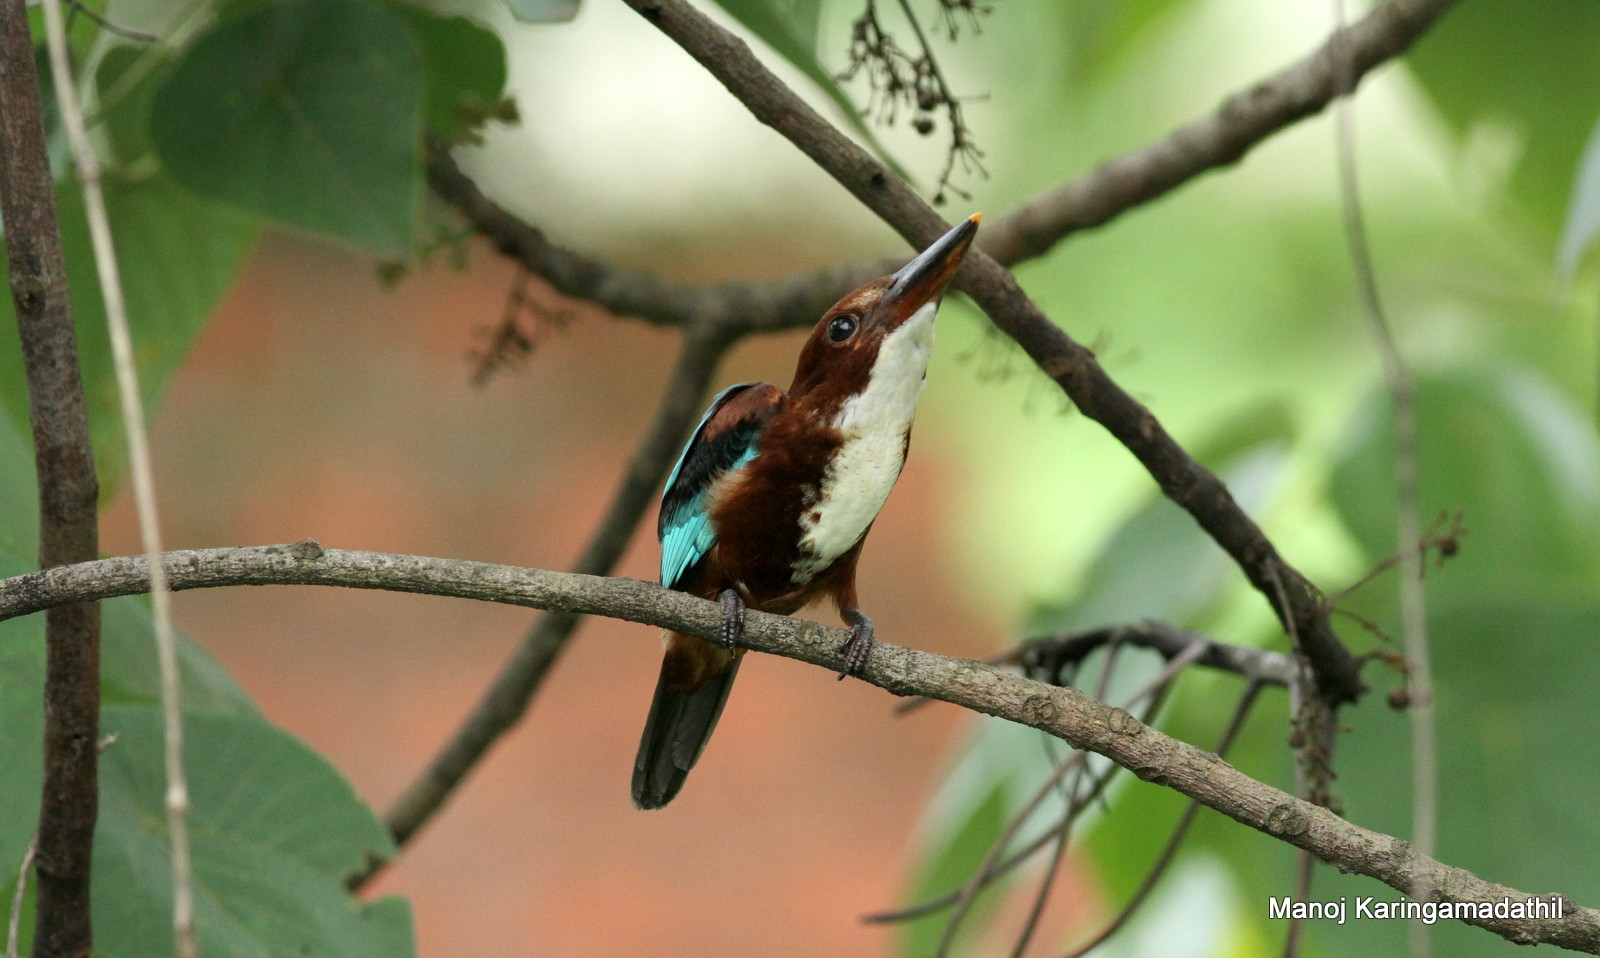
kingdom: Animalia
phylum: Chordata
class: Aves
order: Coraciiformes
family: Alcedinidae
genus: Halcyon
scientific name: Halcyon smyrnensis
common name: White-throated kingfisher
